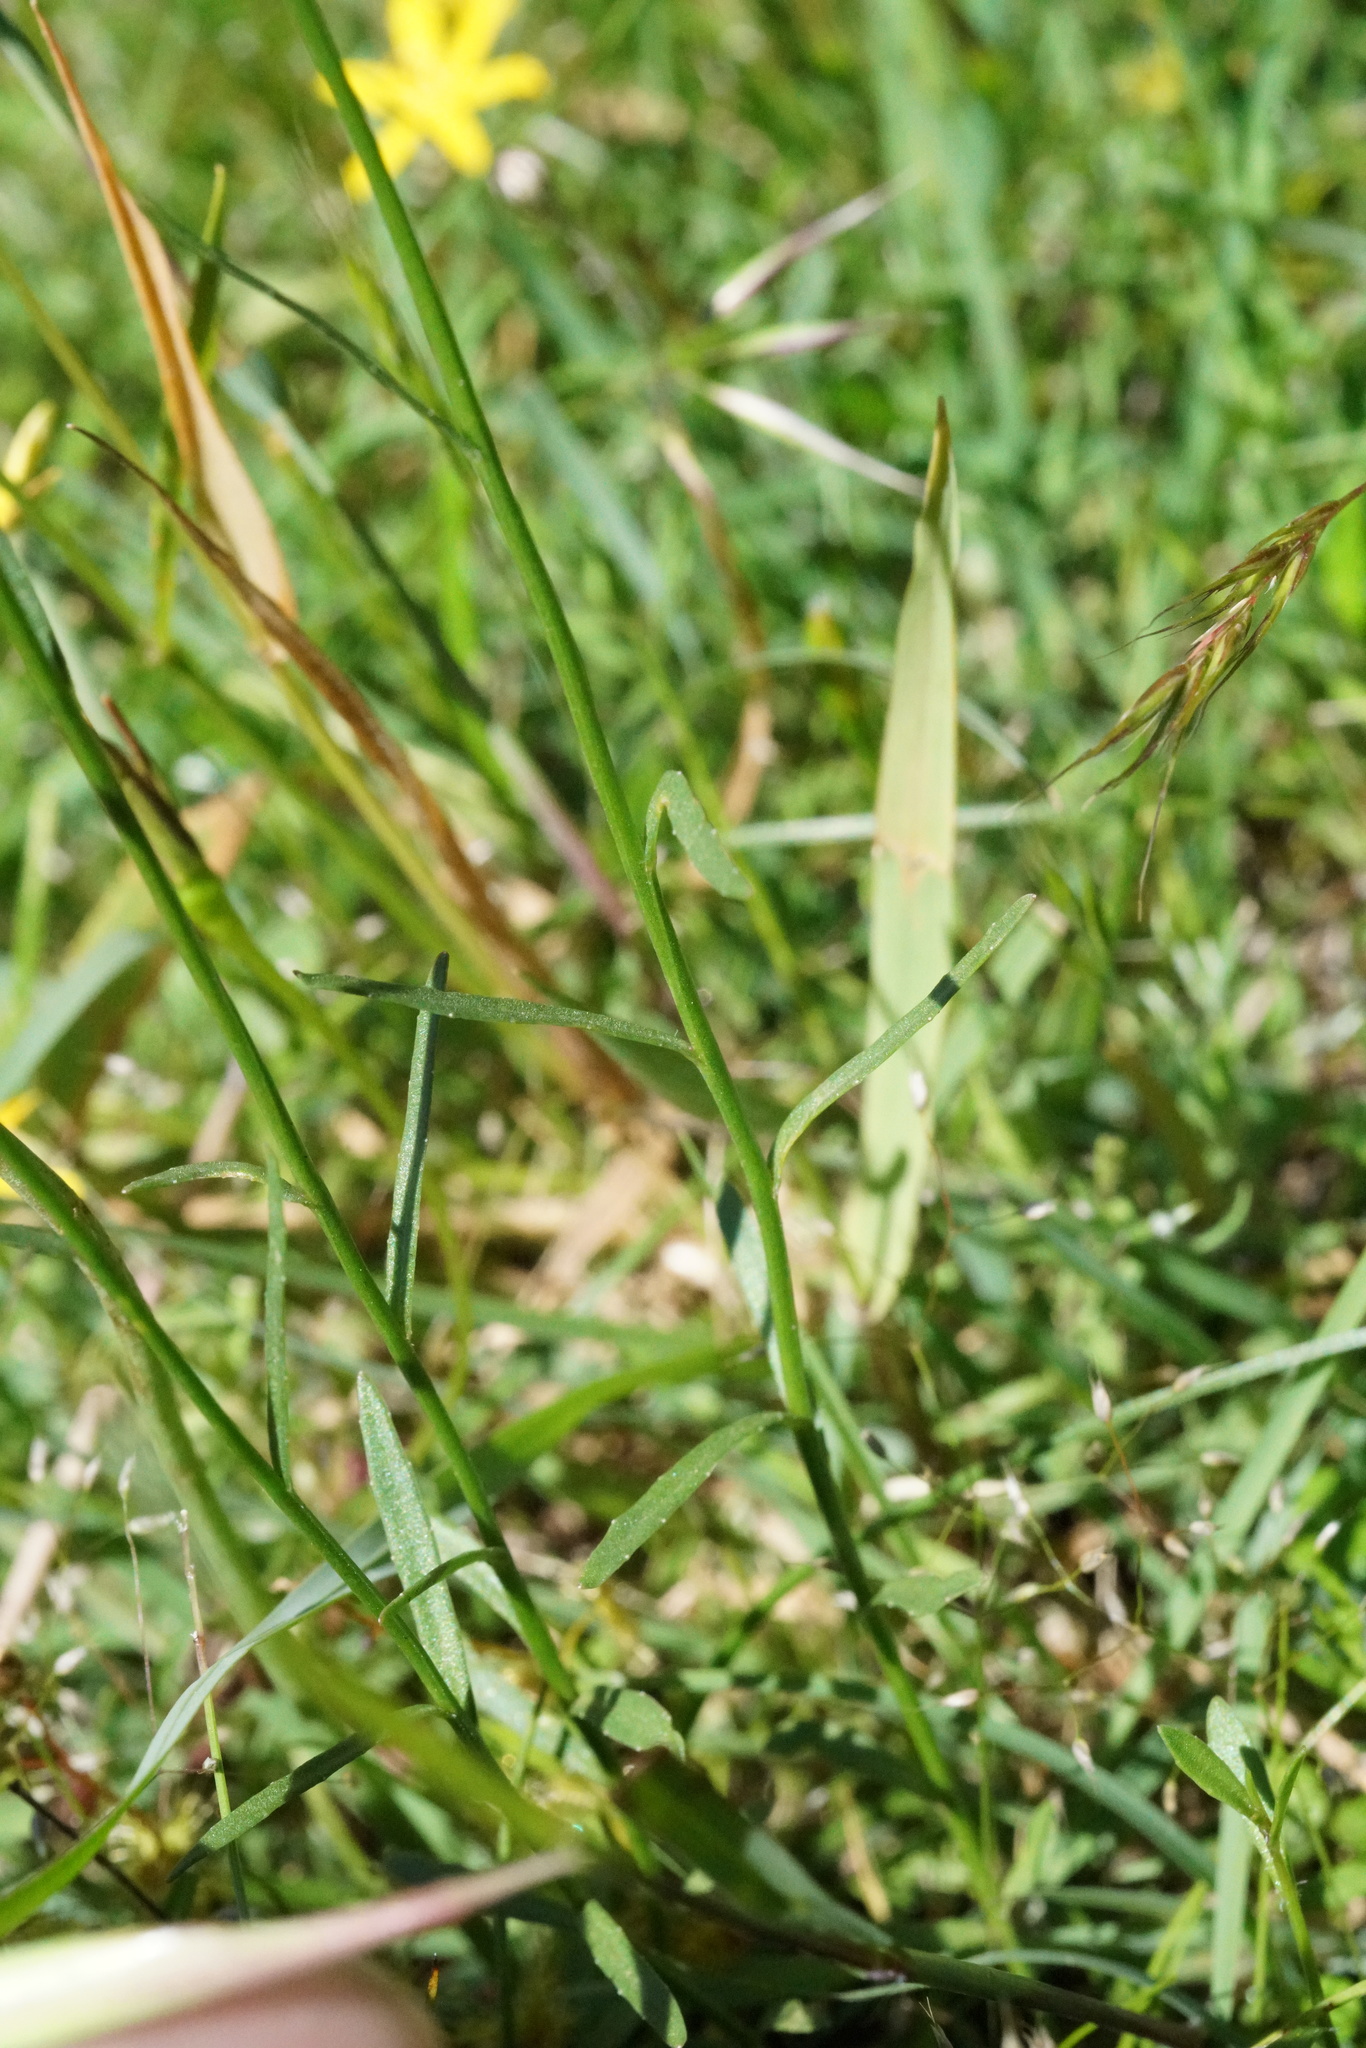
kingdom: Plantae
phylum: Tracheophyta
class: Liliopsida
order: Asparagales
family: Hypoxidaceae
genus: Hypoxis
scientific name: Hypoxis hygrometrica
